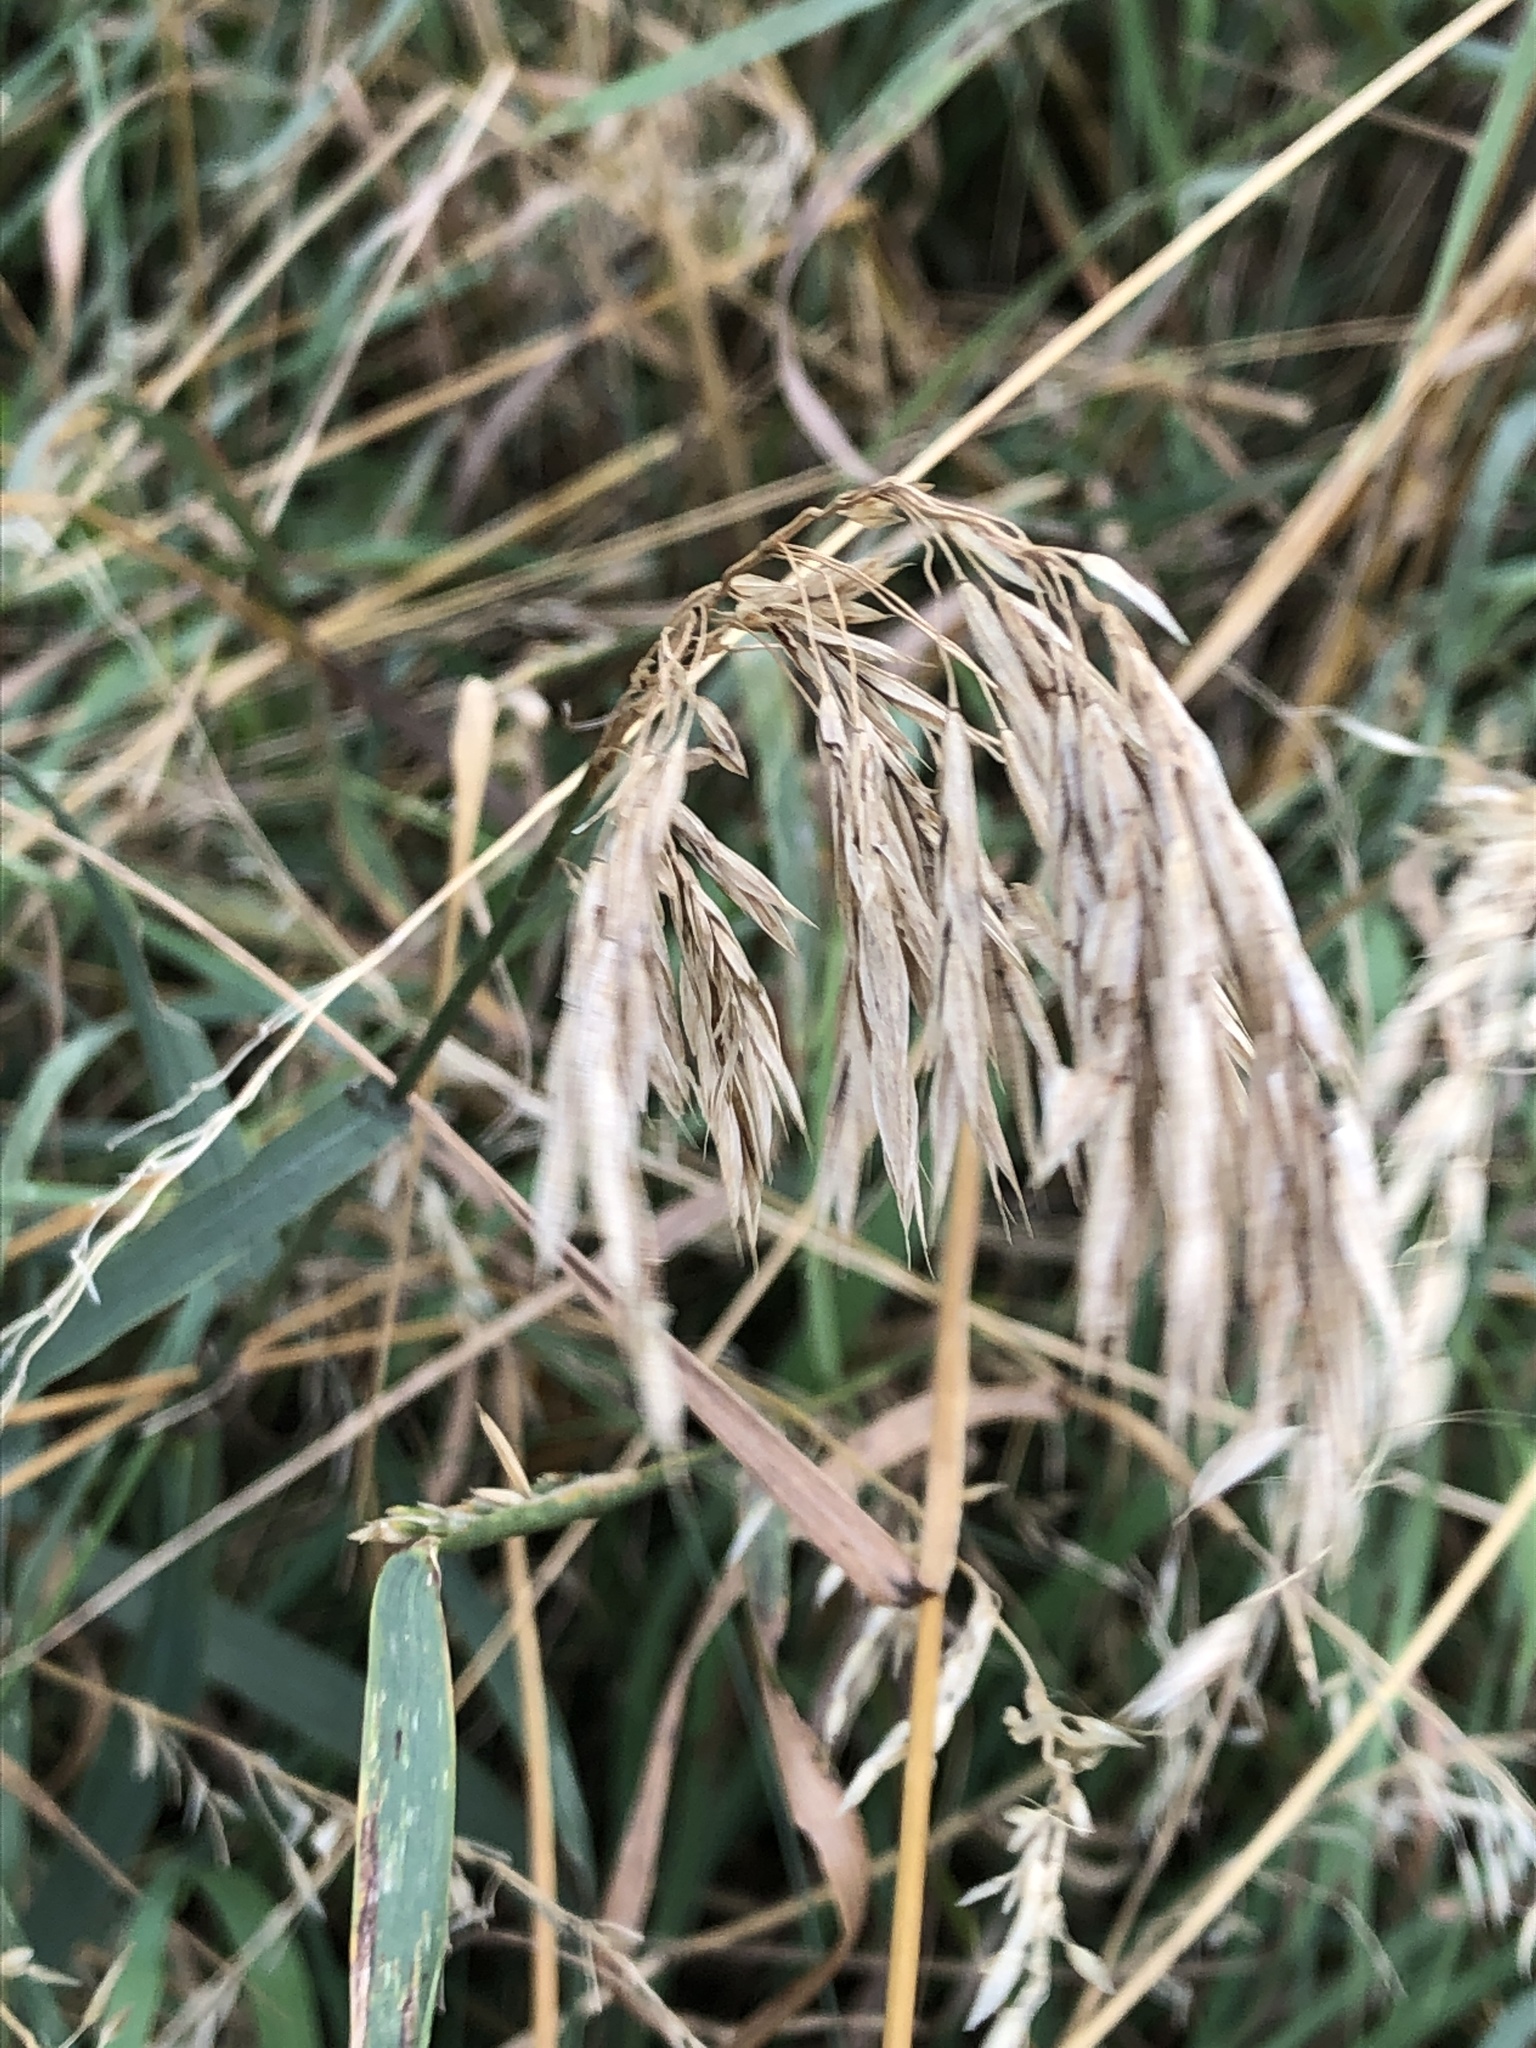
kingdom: Plantae
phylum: Tracheophyta
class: Liliopsida
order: Poales
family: Poaceae
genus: Bromus
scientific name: Bromus inermis
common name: Smooth brome
